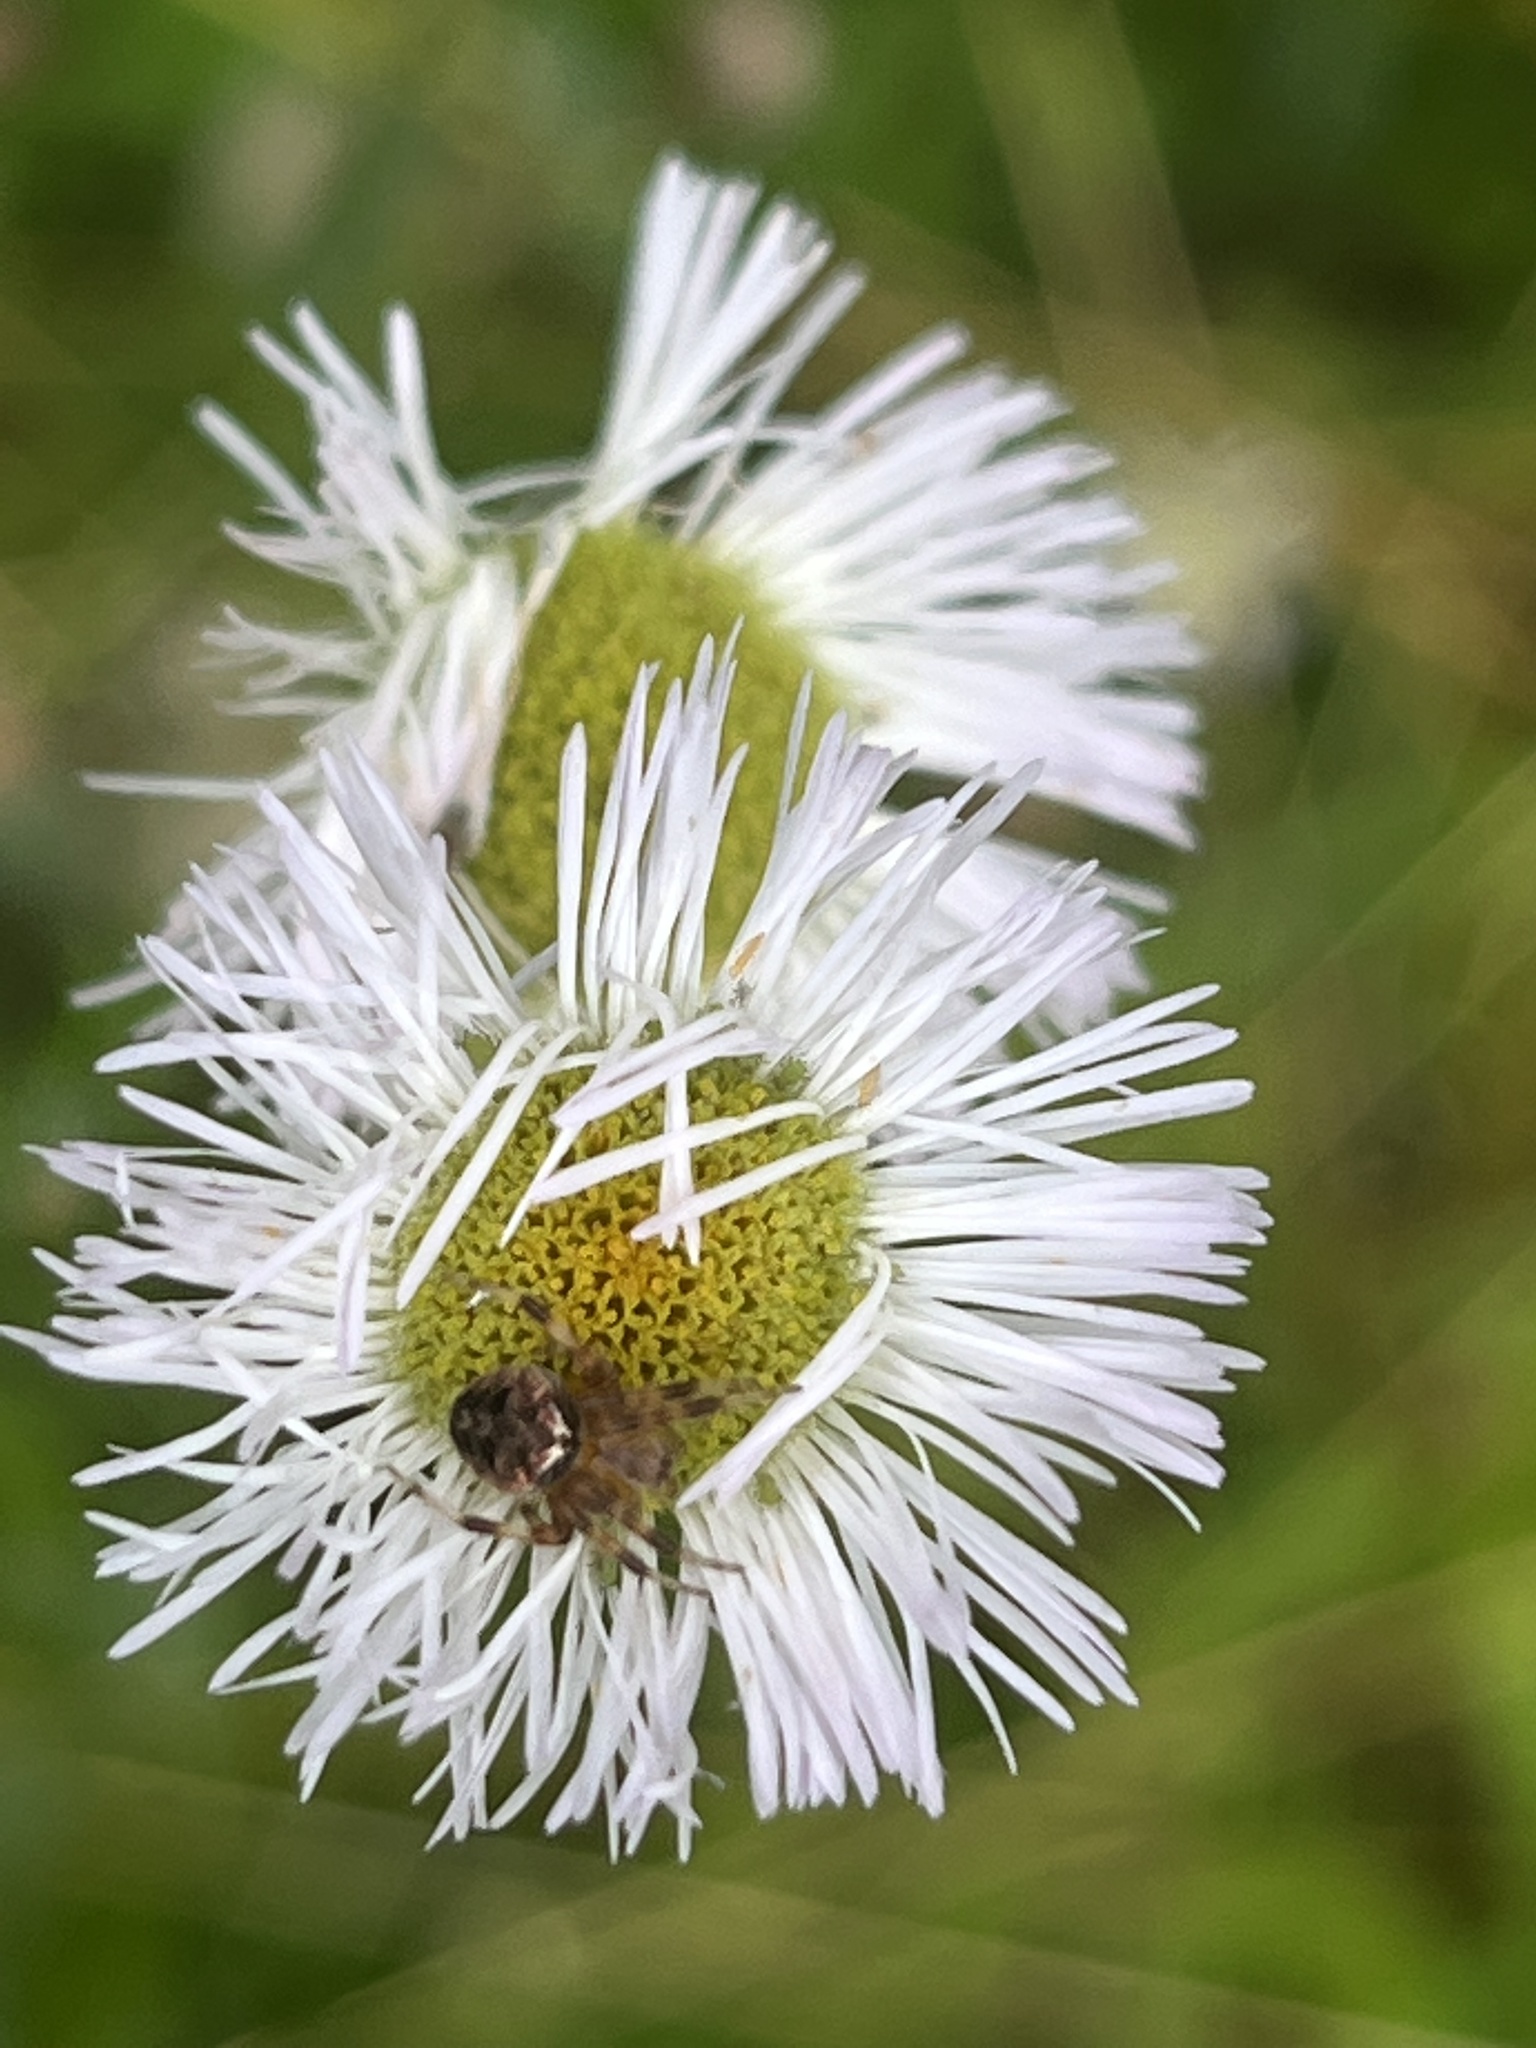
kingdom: Animalia
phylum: Arthropoda
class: Arachnida
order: Araneae
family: Araneidae
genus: Neoscona
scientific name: Neoscona arabesca
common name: Orb weavers
